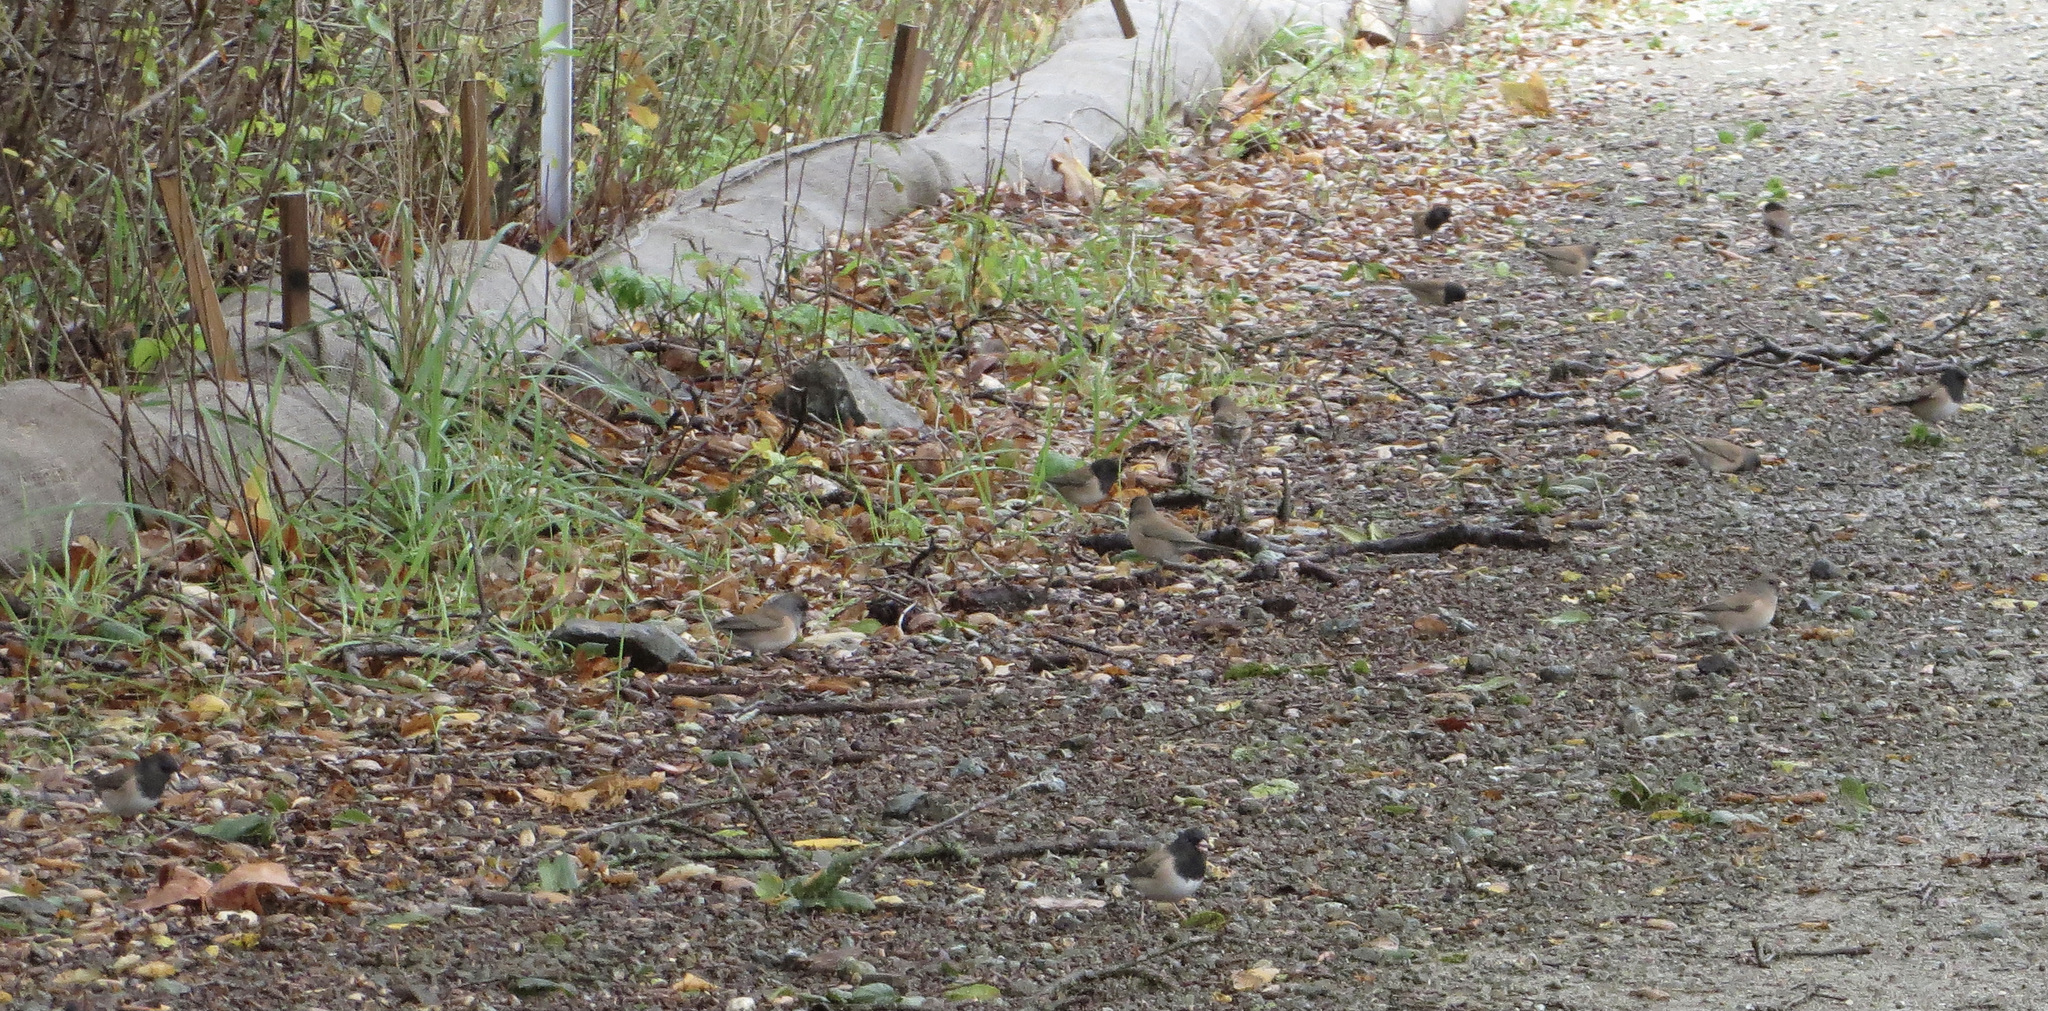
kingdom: Animalia
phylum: Chordata
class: Aves
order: Passeriformes
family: Passerellidae
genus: Junco
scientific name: Junco hyemalis
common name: Dark-eyed junco
